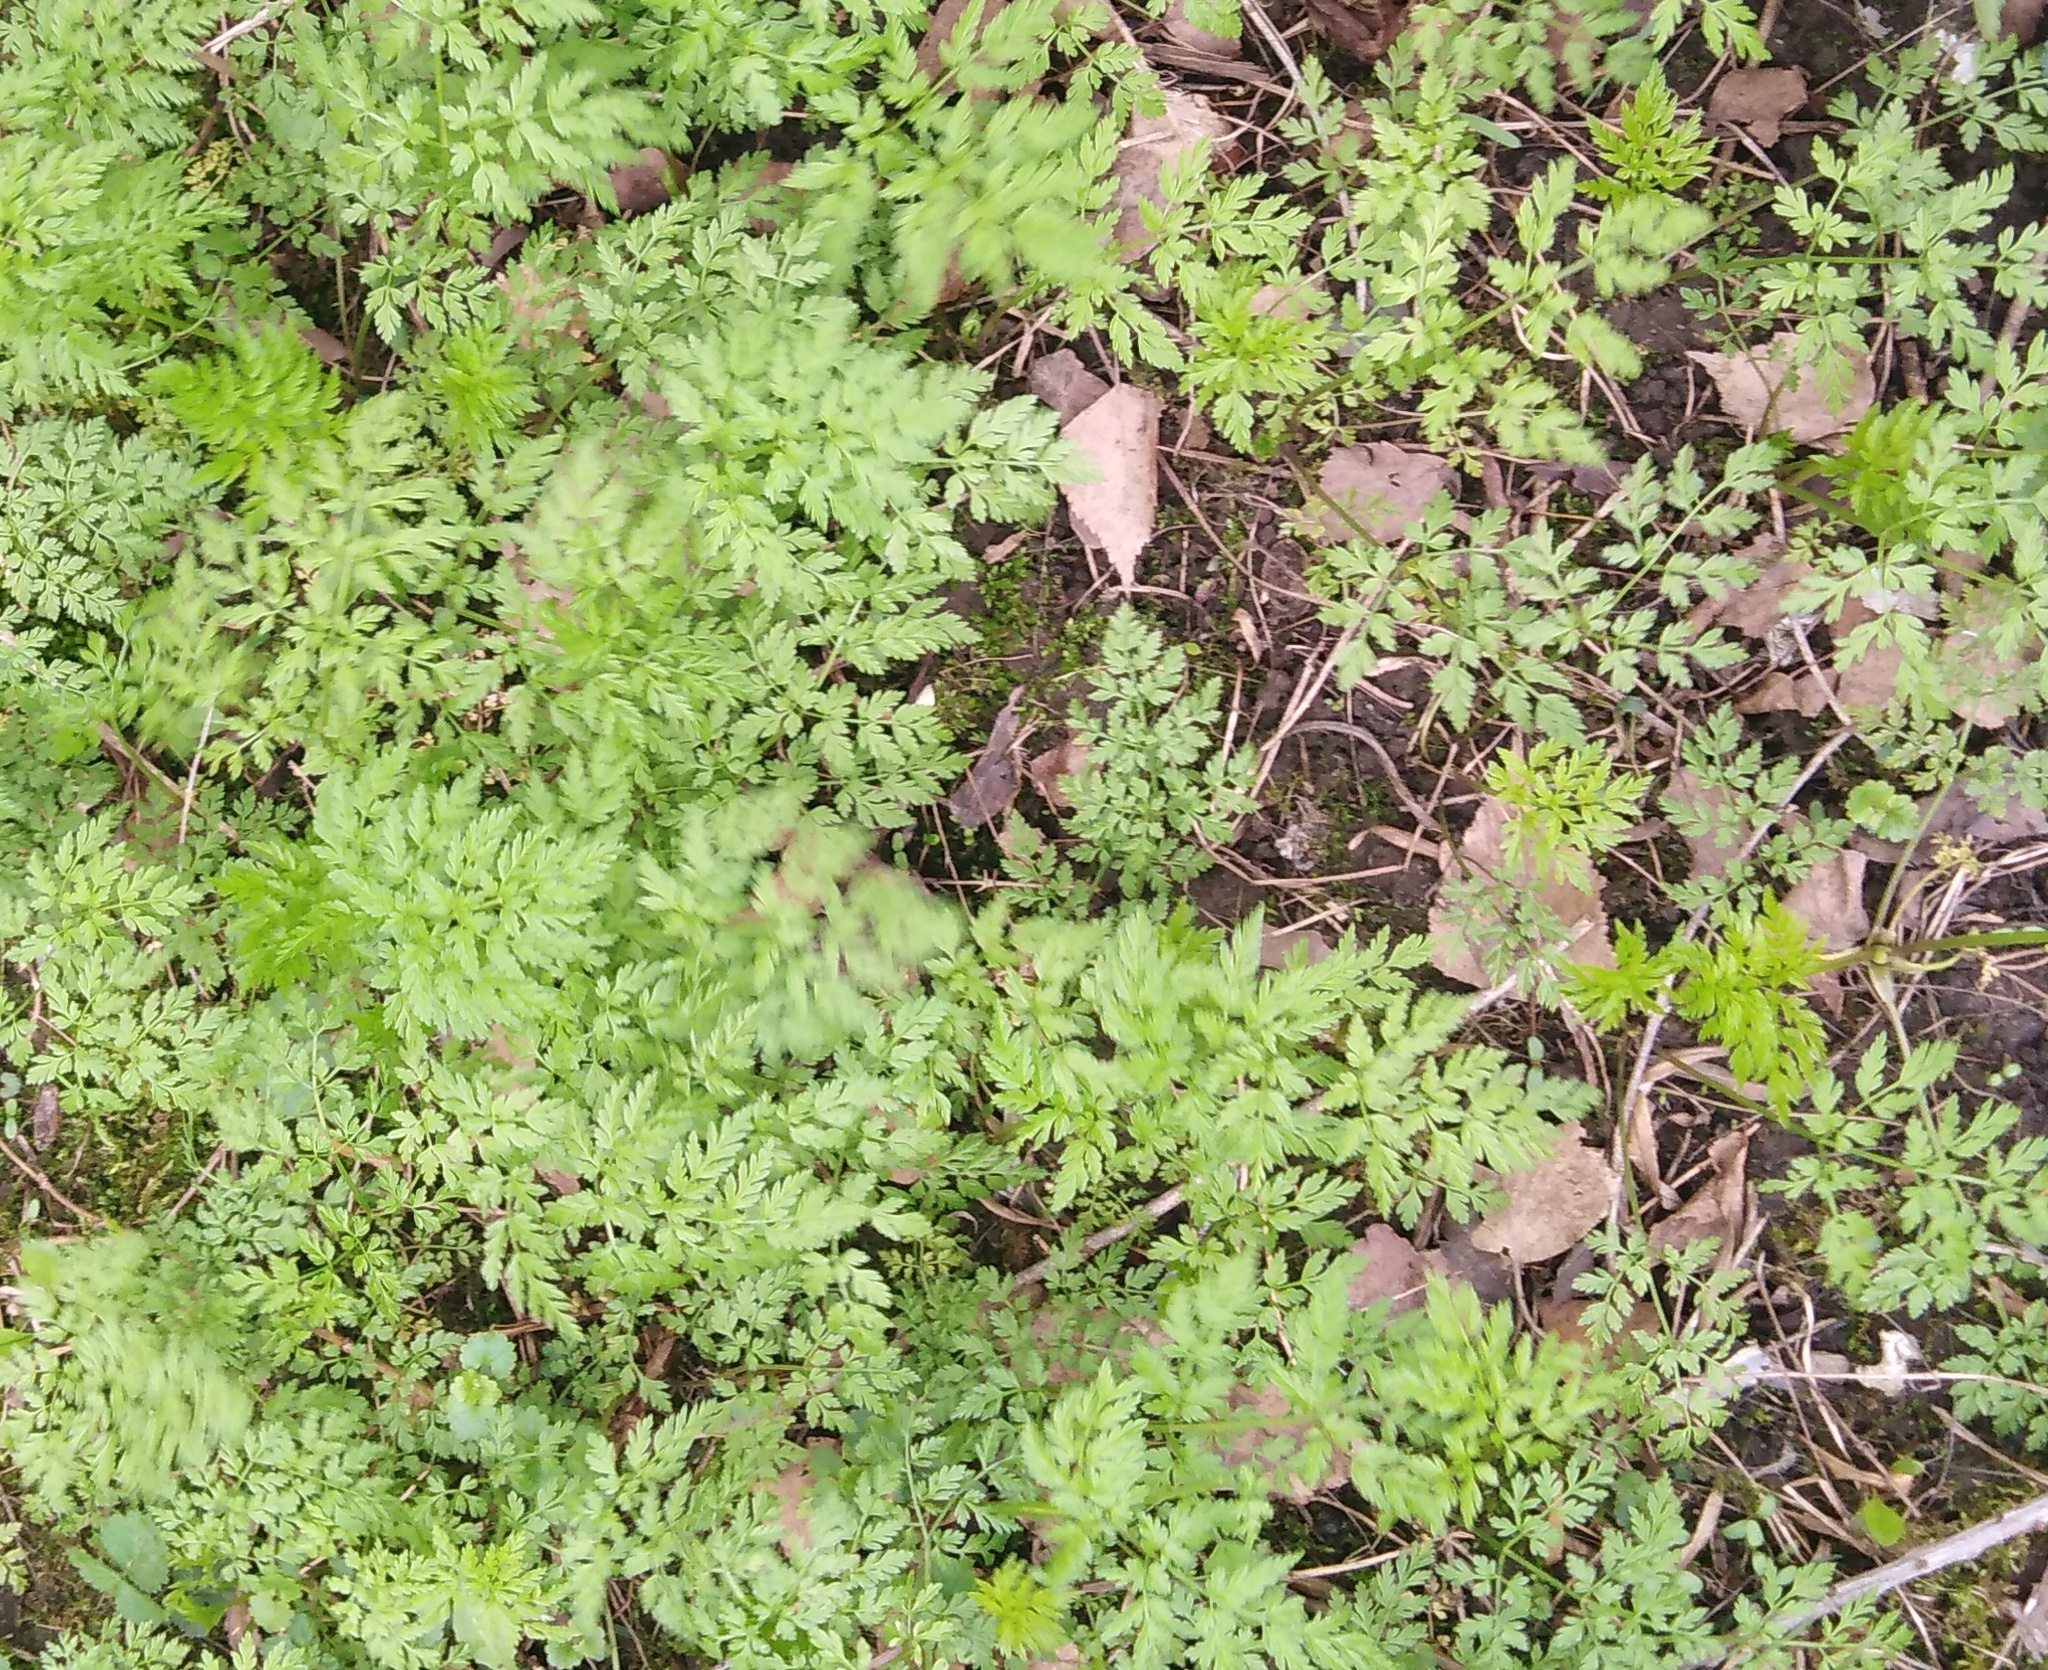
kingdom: Plantae
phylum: Tracheophyta
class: Magnoliopsida
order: Apiales
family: Apiaceae
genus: Anthriscus
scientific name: Anthriscus sylvestris
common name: Cow parsley
